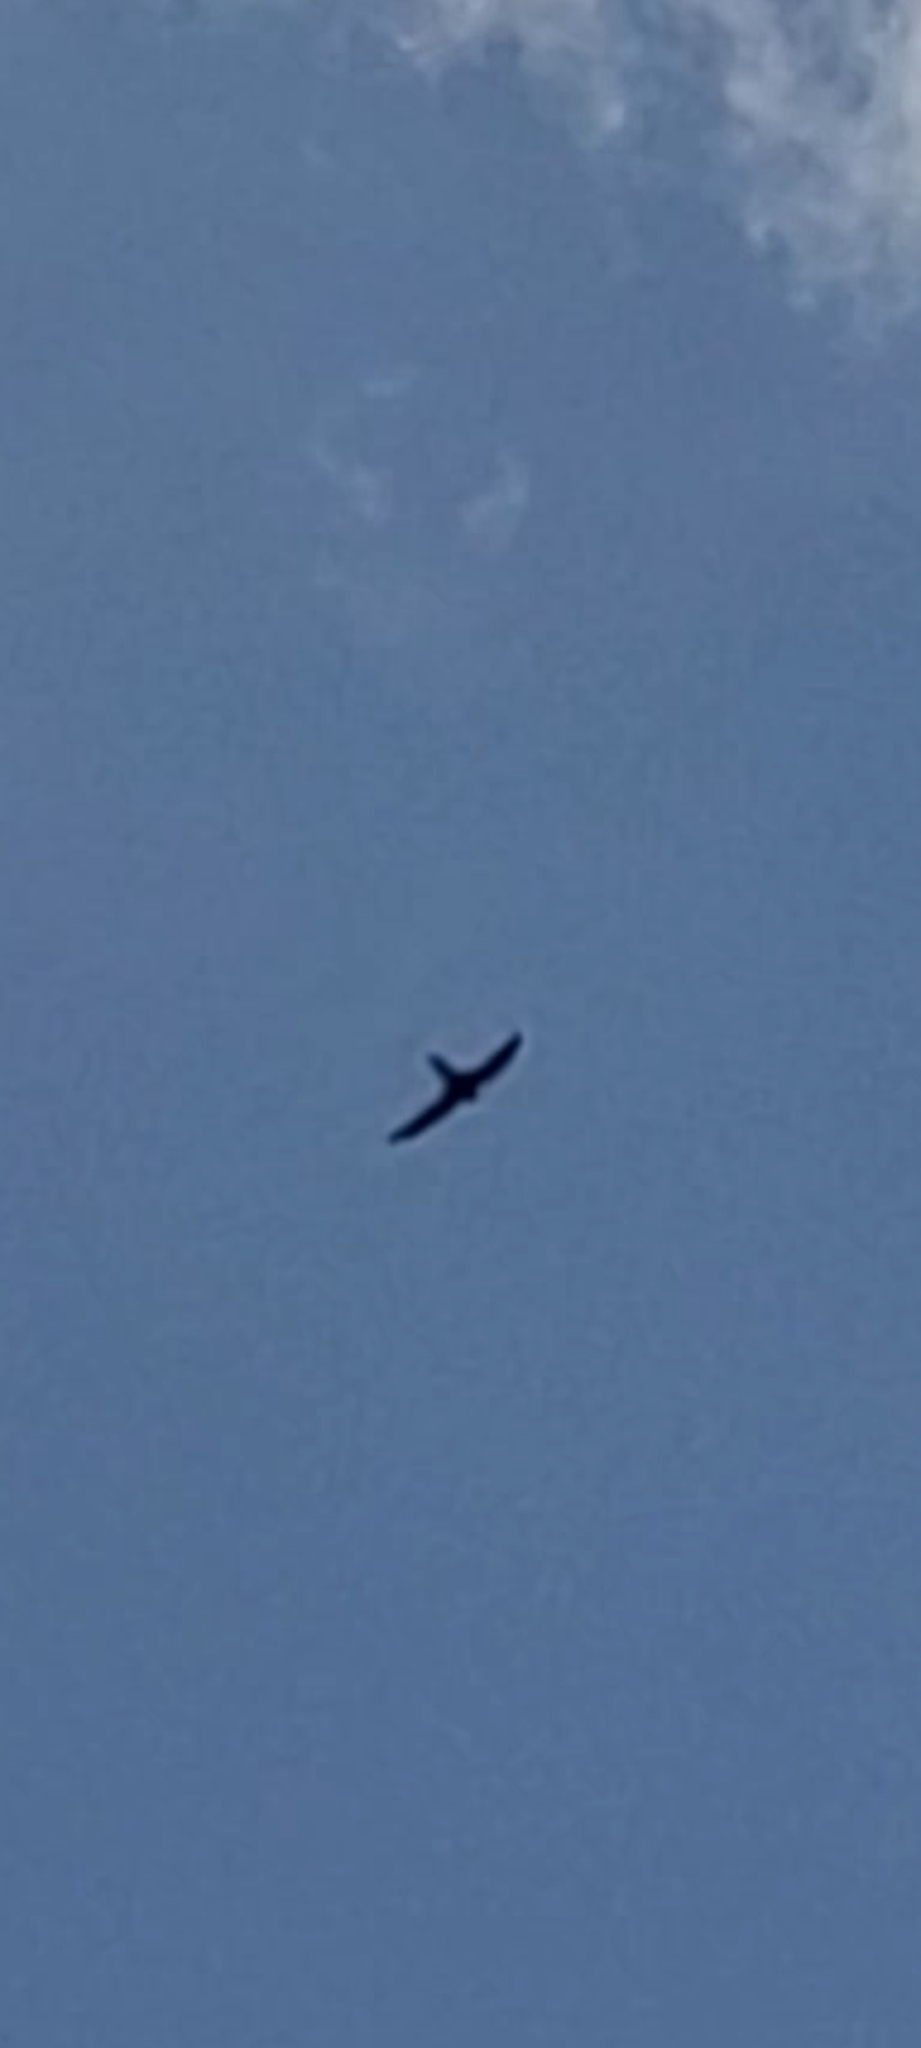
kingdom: Animalia
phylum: Chordata
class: Aves
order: Apodiformes
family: Apodidae
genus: Apus
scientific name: Apus apus
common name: Common swift
